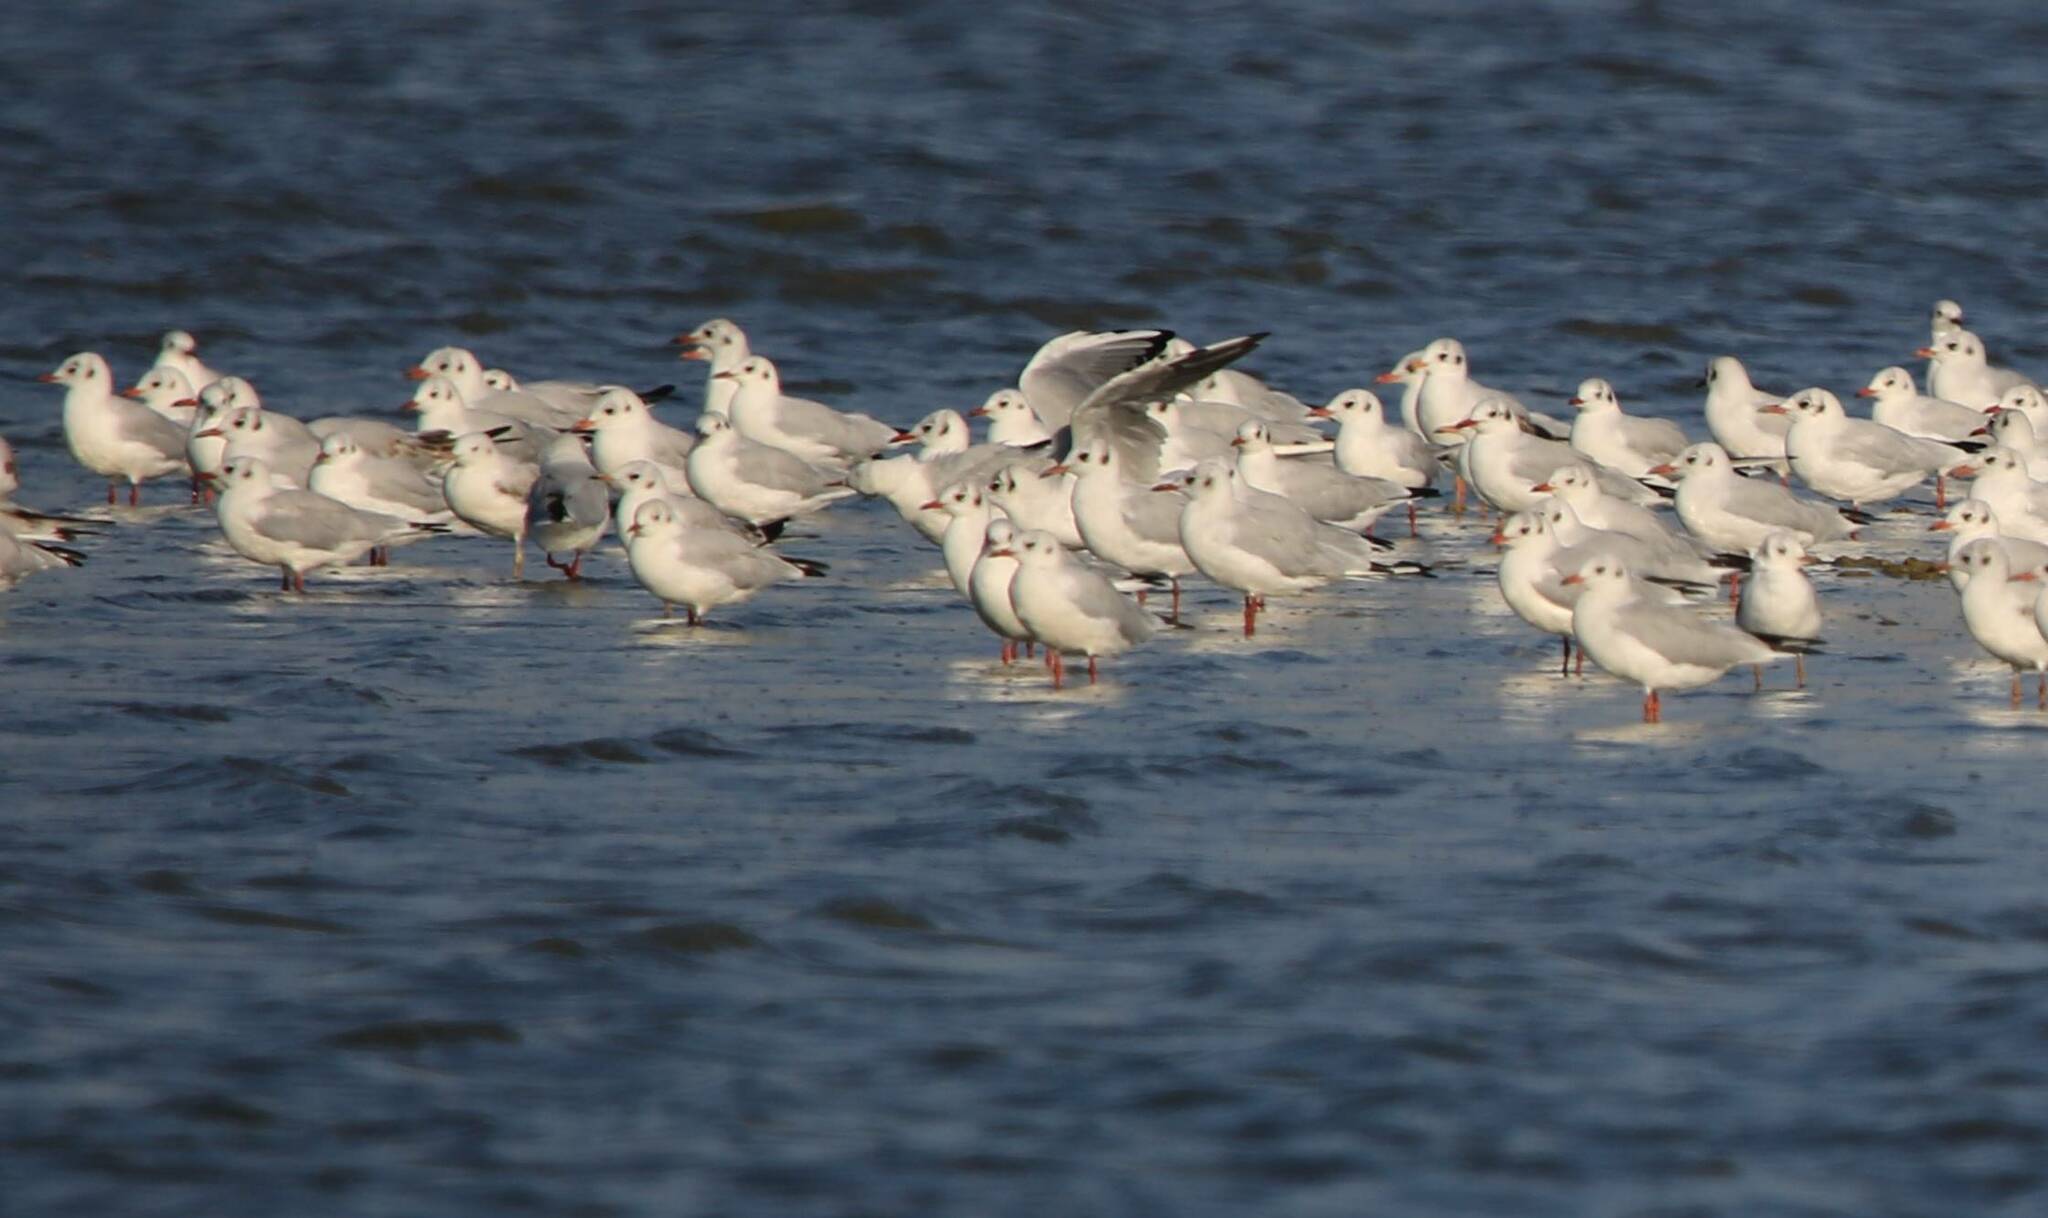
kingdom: Animalia
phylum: Chordata
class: Aves
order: Charadriiformes
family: Laridae
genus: Chroicocephalus
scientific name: Chroicocephalus ridibundus
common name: Black-headed gull
